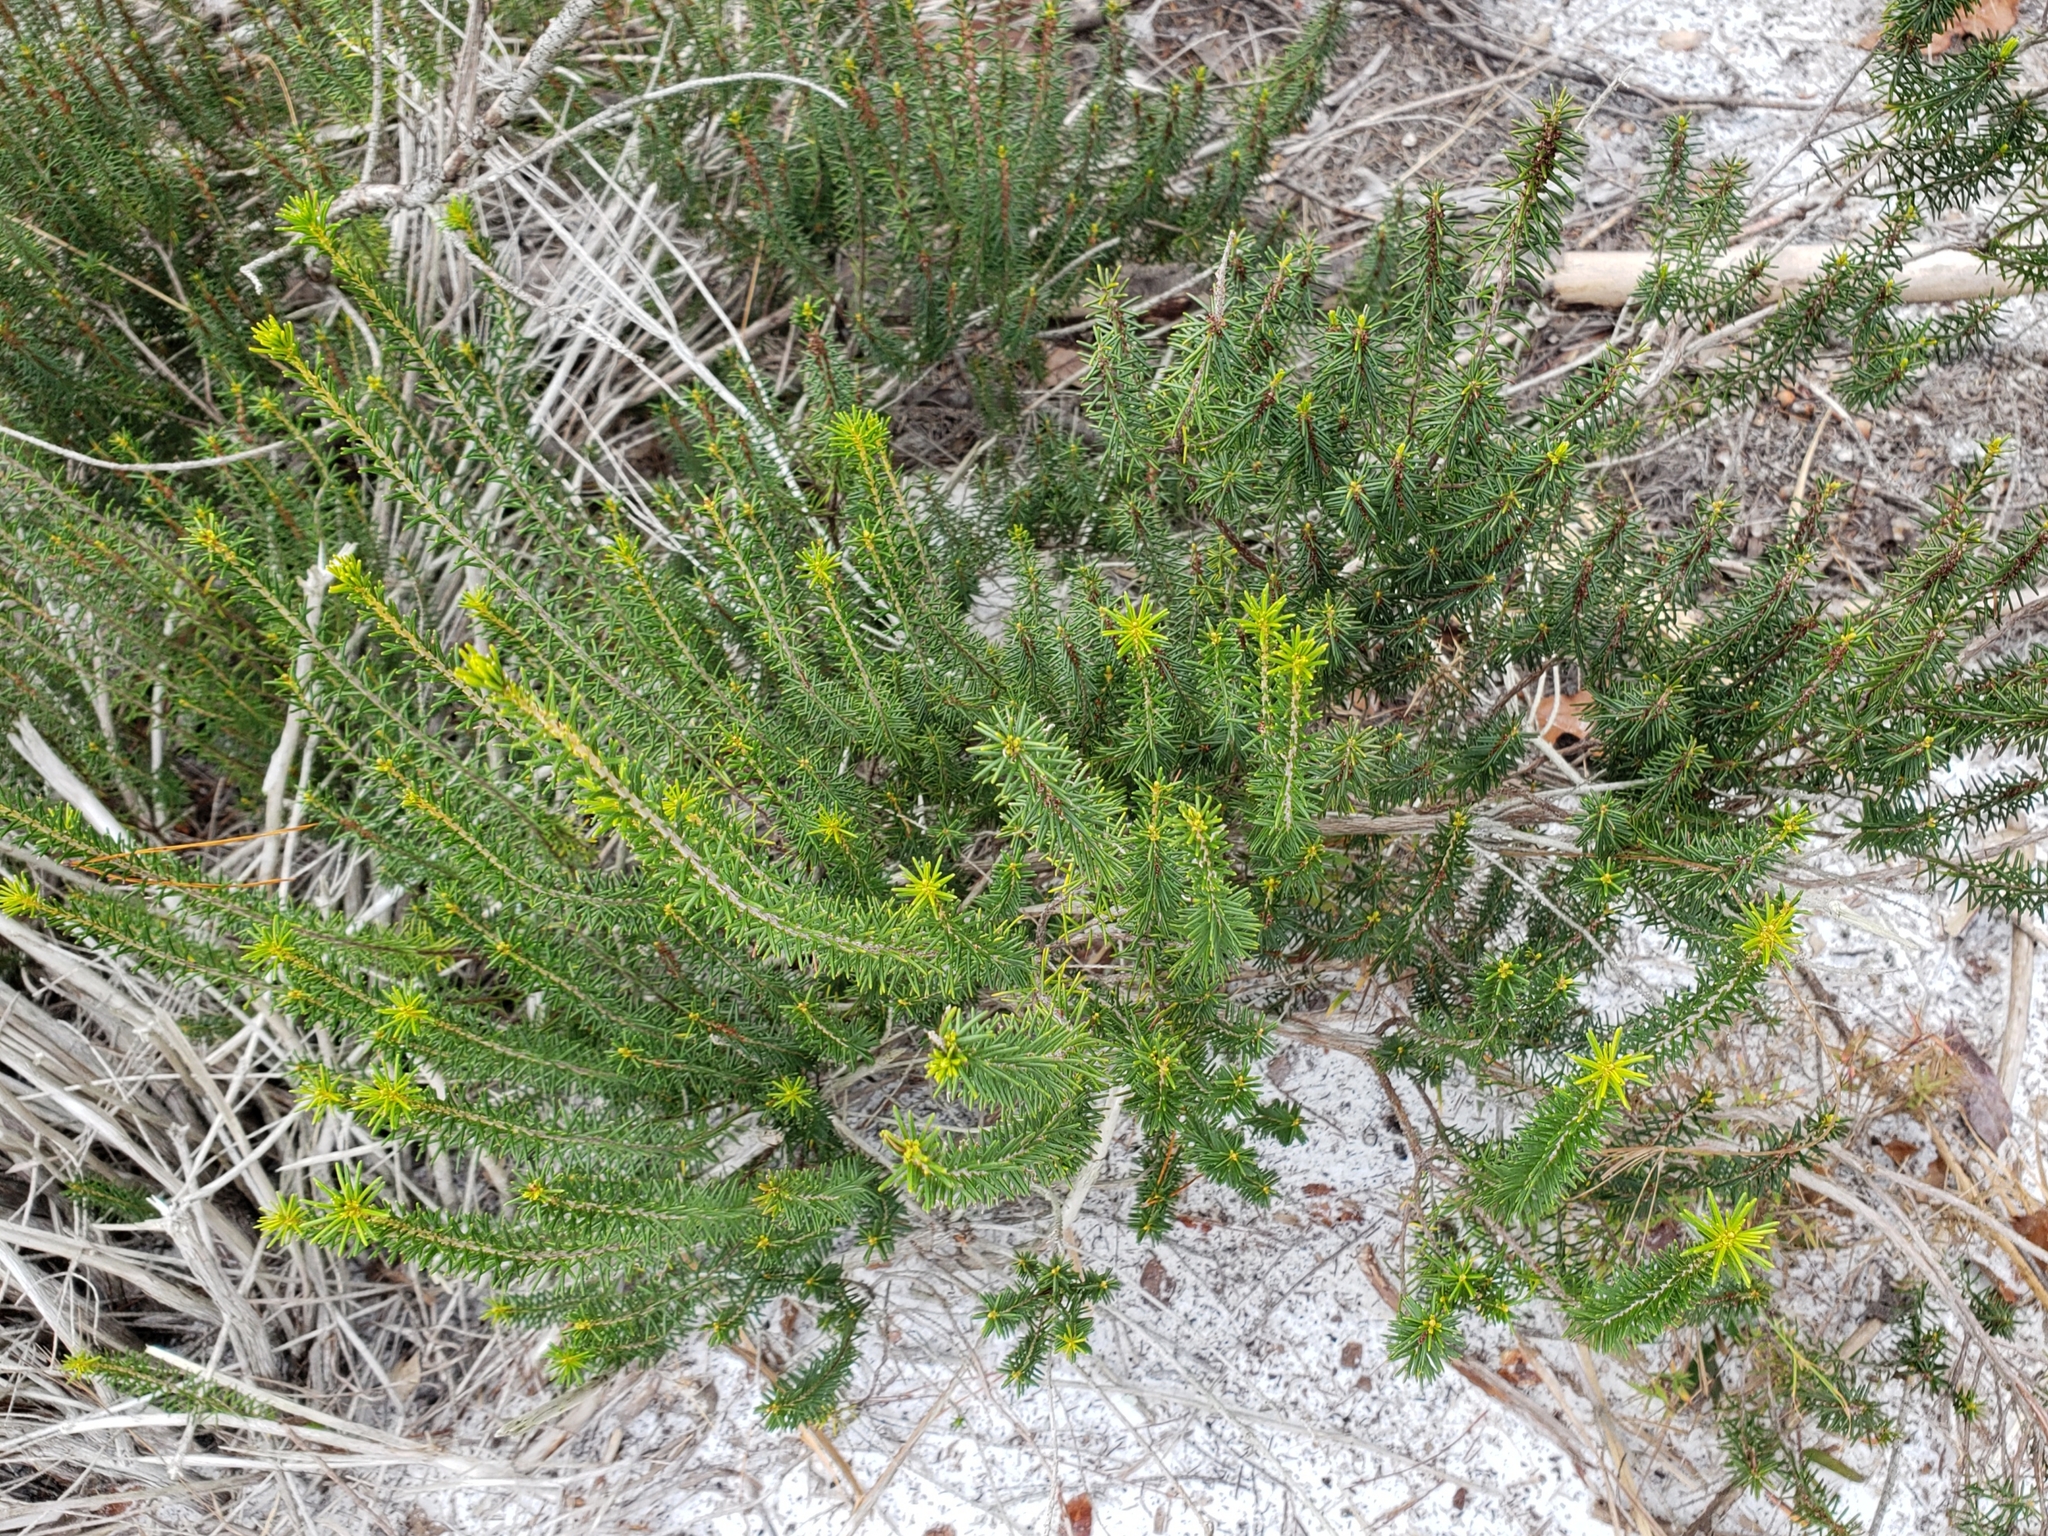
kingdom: Plantae
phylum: Tracheophyta
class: Magnoliopsida
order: Ericales
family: Ericaceae
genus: Ceratiola
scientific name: Ceratiola ericoides
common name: Sandhill-rosemary
